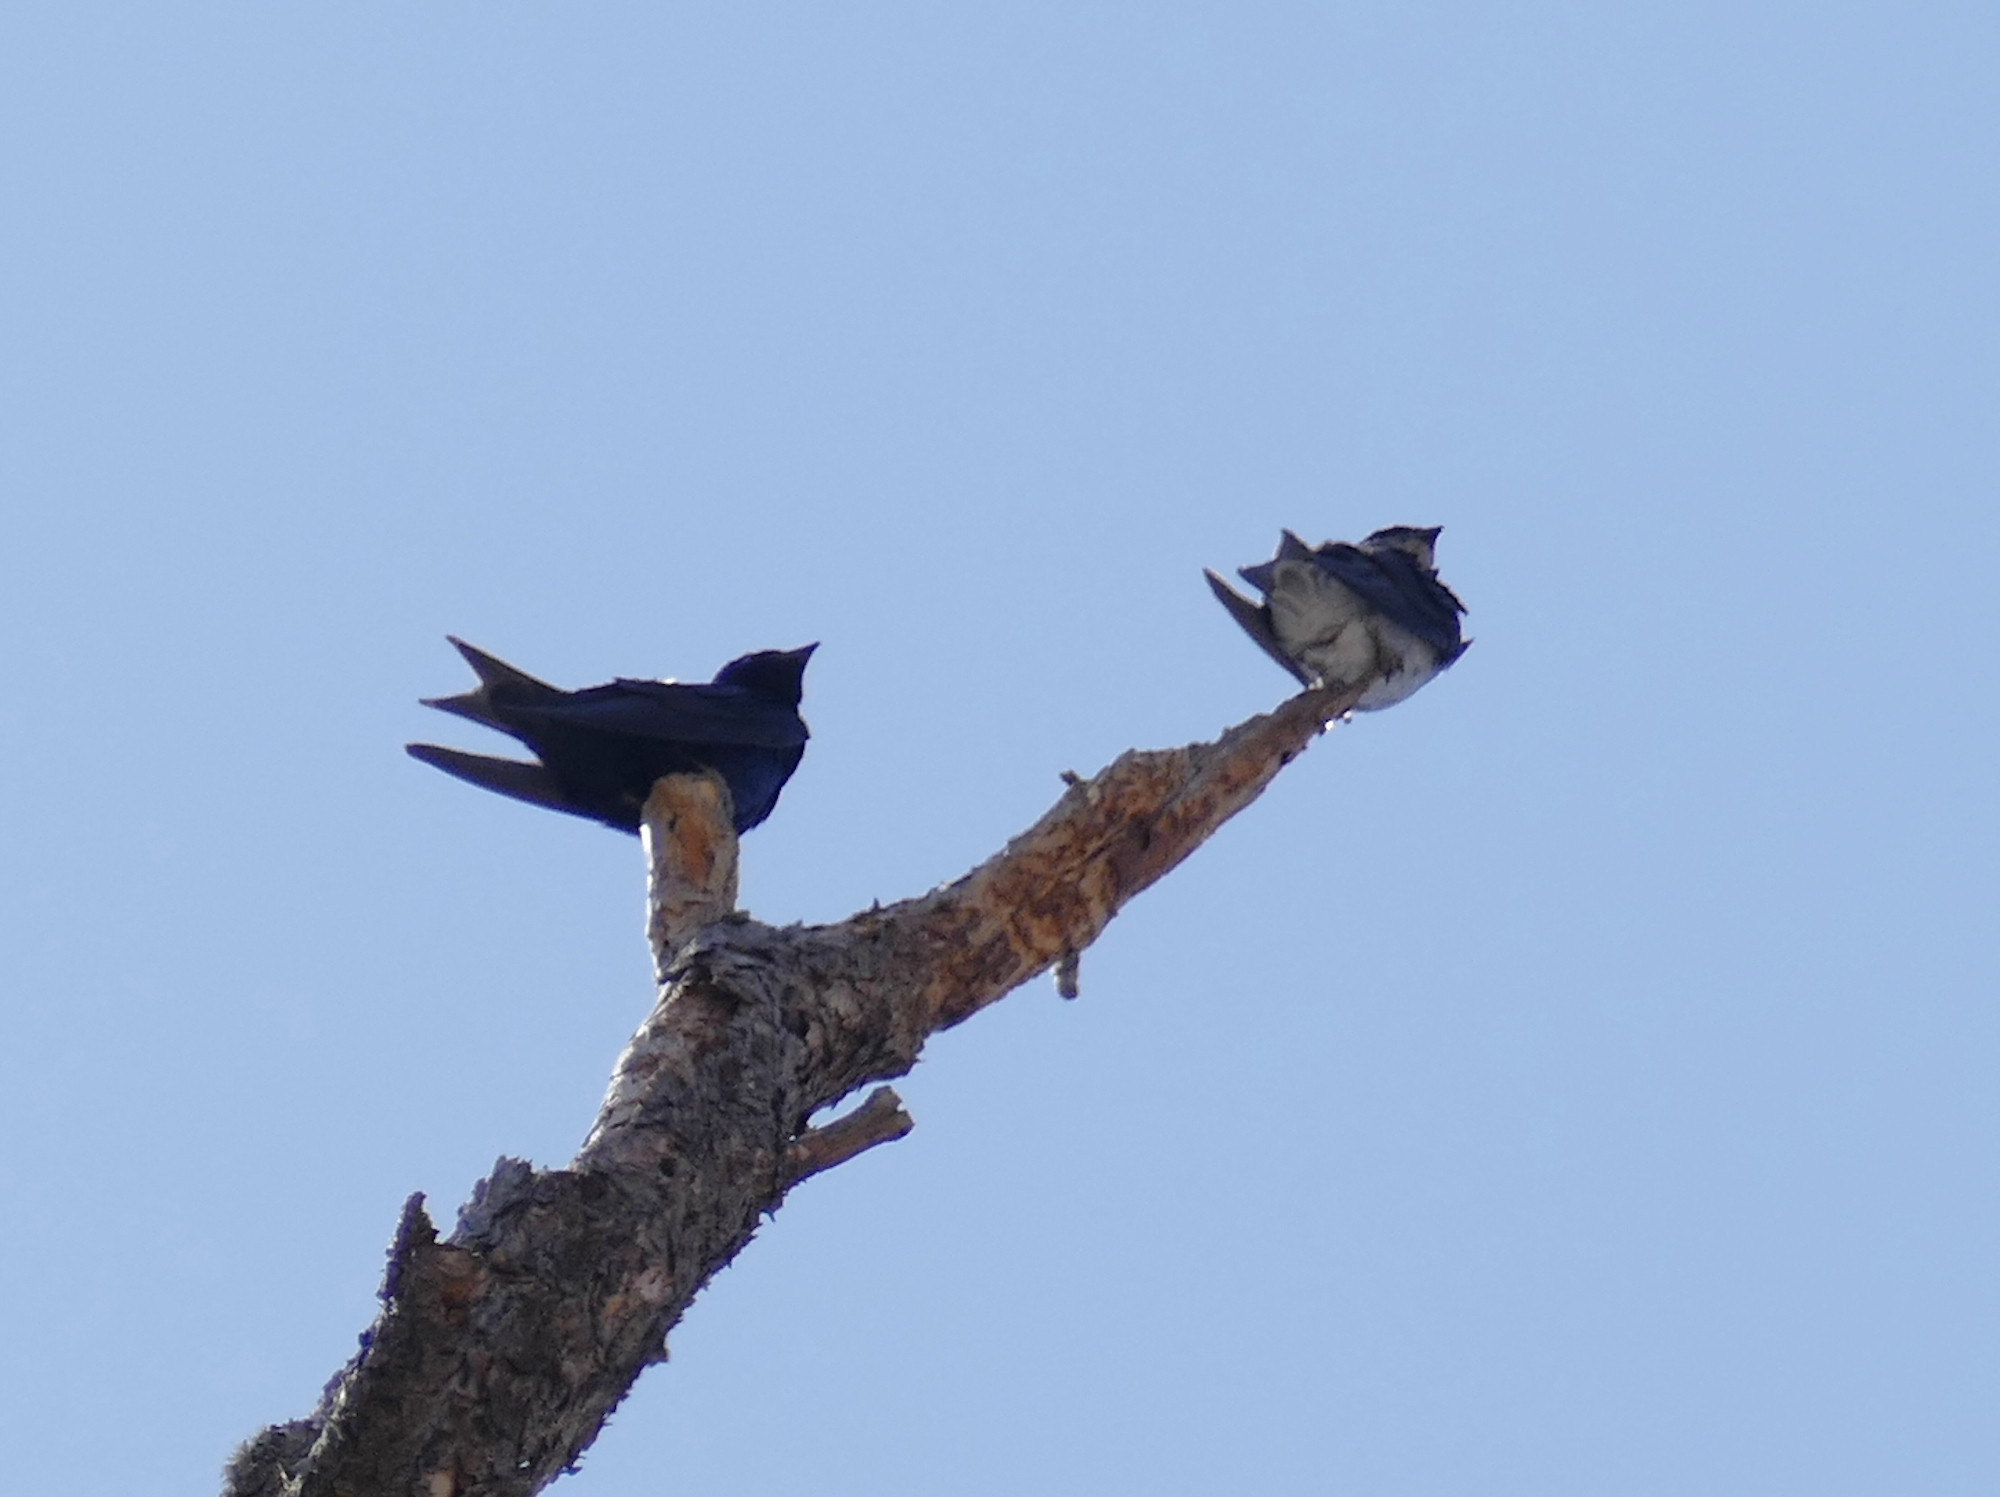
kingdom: Animalia
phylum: Chordata
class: Aves
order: Passeriformes
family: Hirundinidae
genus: Progne
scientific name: Progne subis
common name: Purple martin
